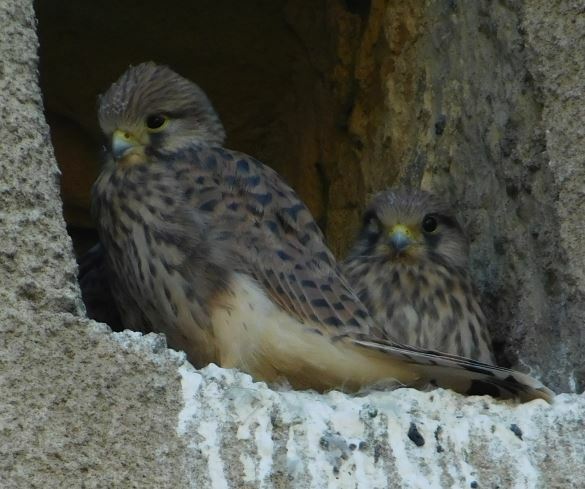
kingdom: Animalia
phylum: Chordata
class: Aves
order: Falconiformes
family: Falconidae
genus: Falco
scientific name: Falco tinnunculus
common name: Common kestrel
